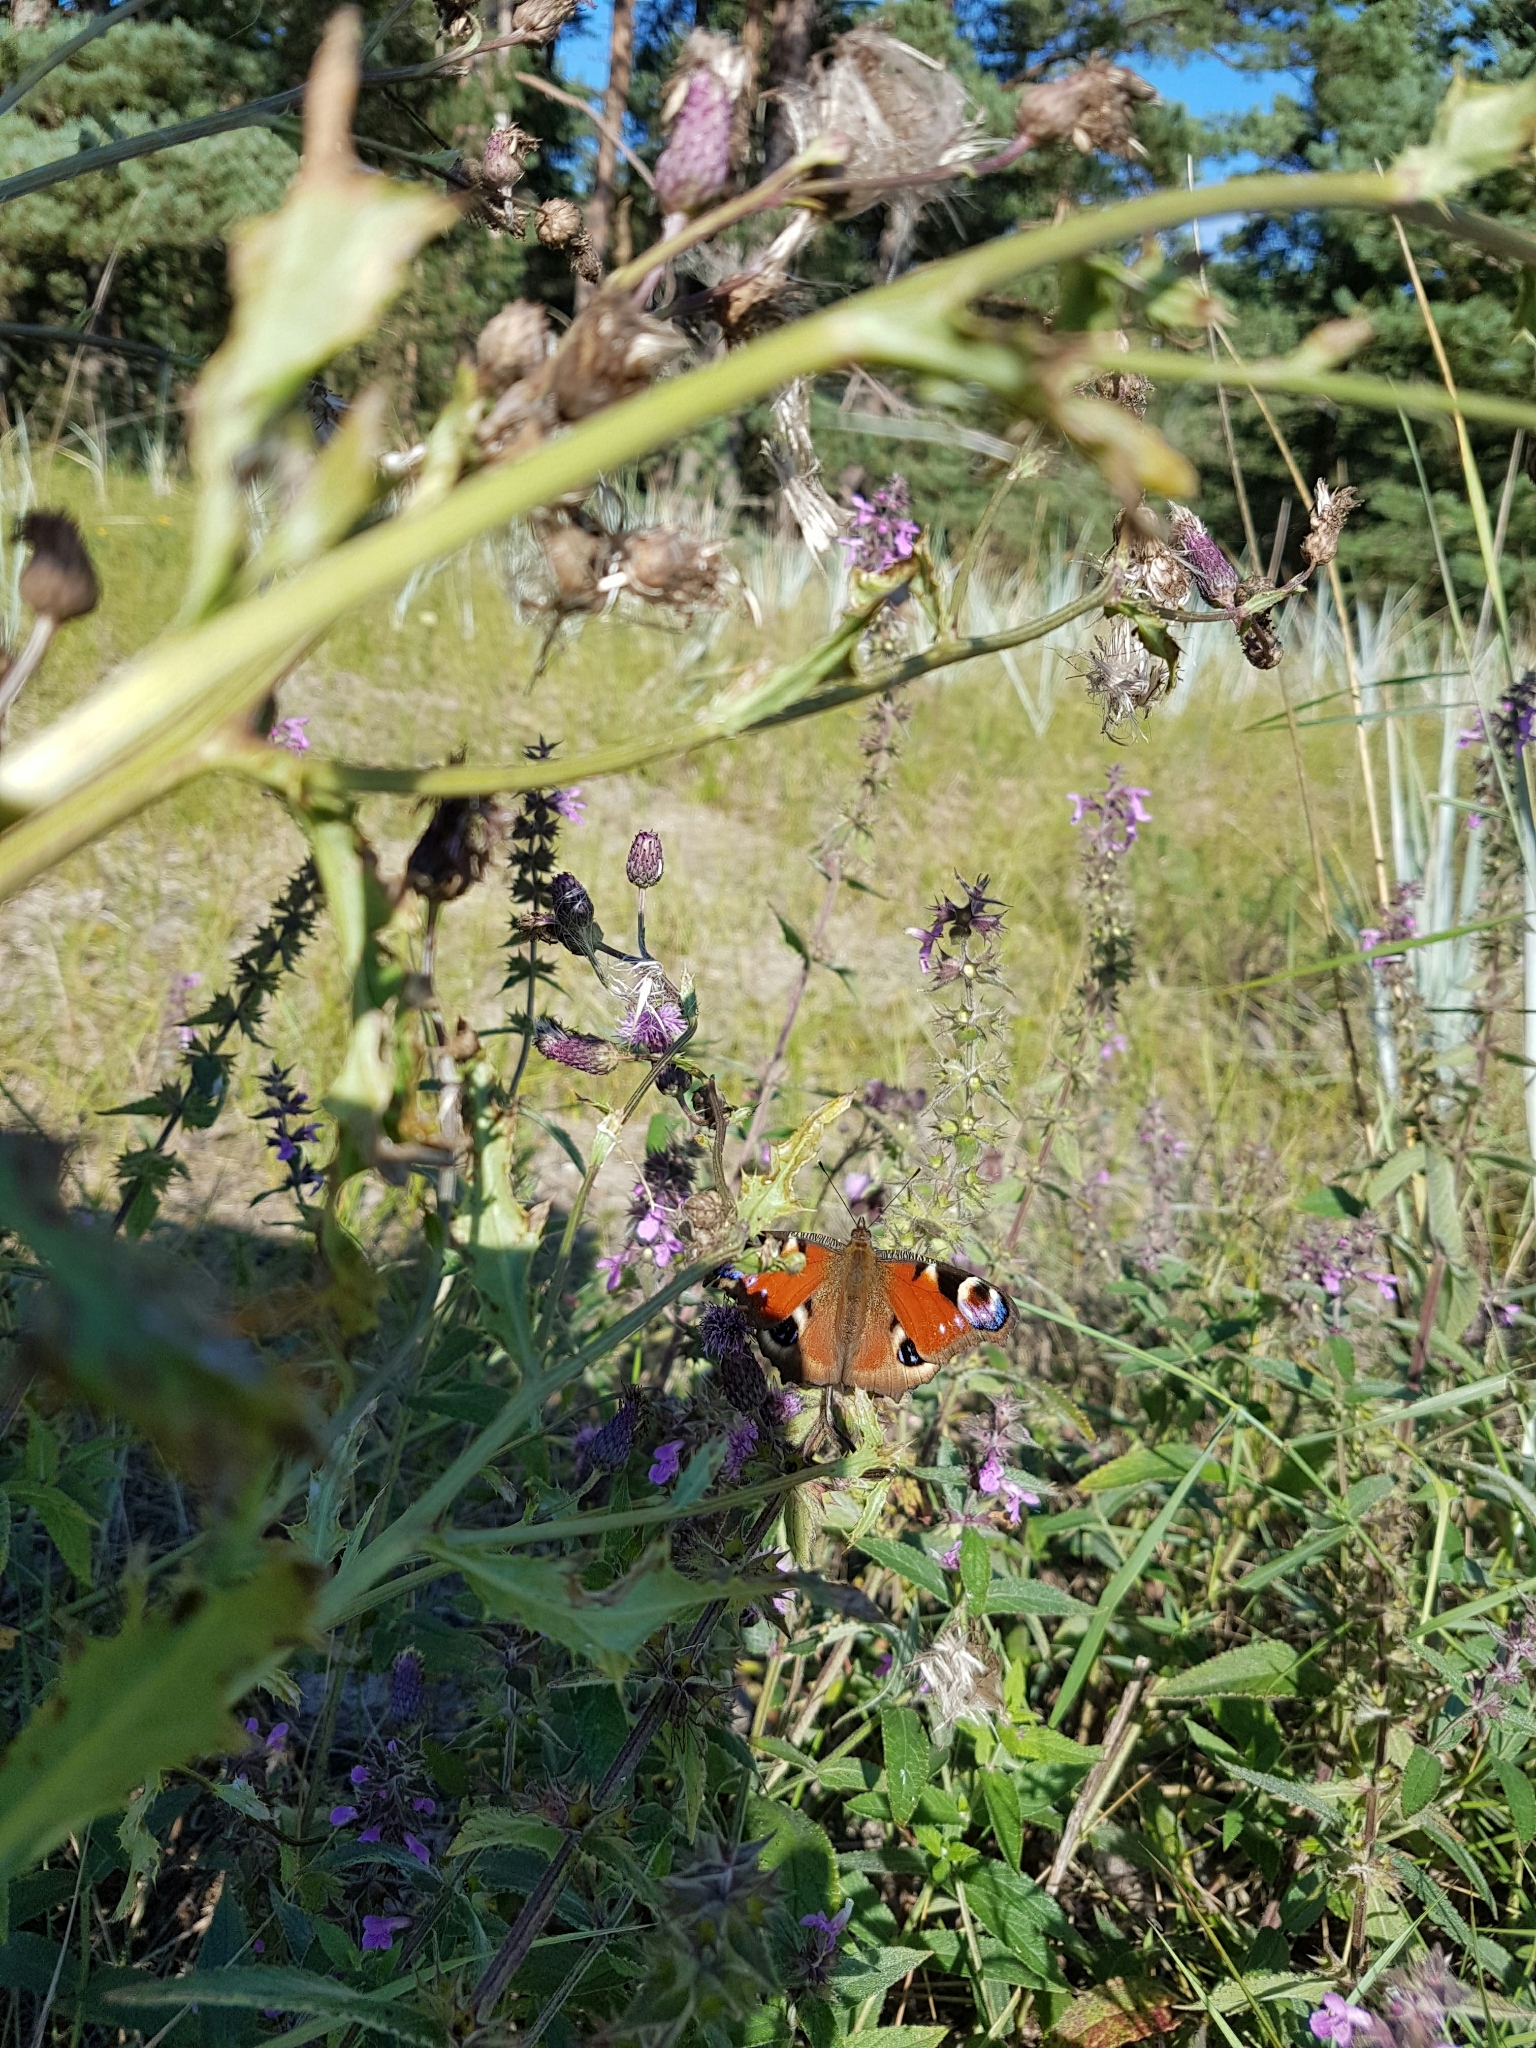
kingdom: Animalia
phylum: Arthropoda
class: Insecta
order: Lepidoptera
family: Nymphalidae
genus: Aglais
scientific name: Aglais io
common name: Peacock
